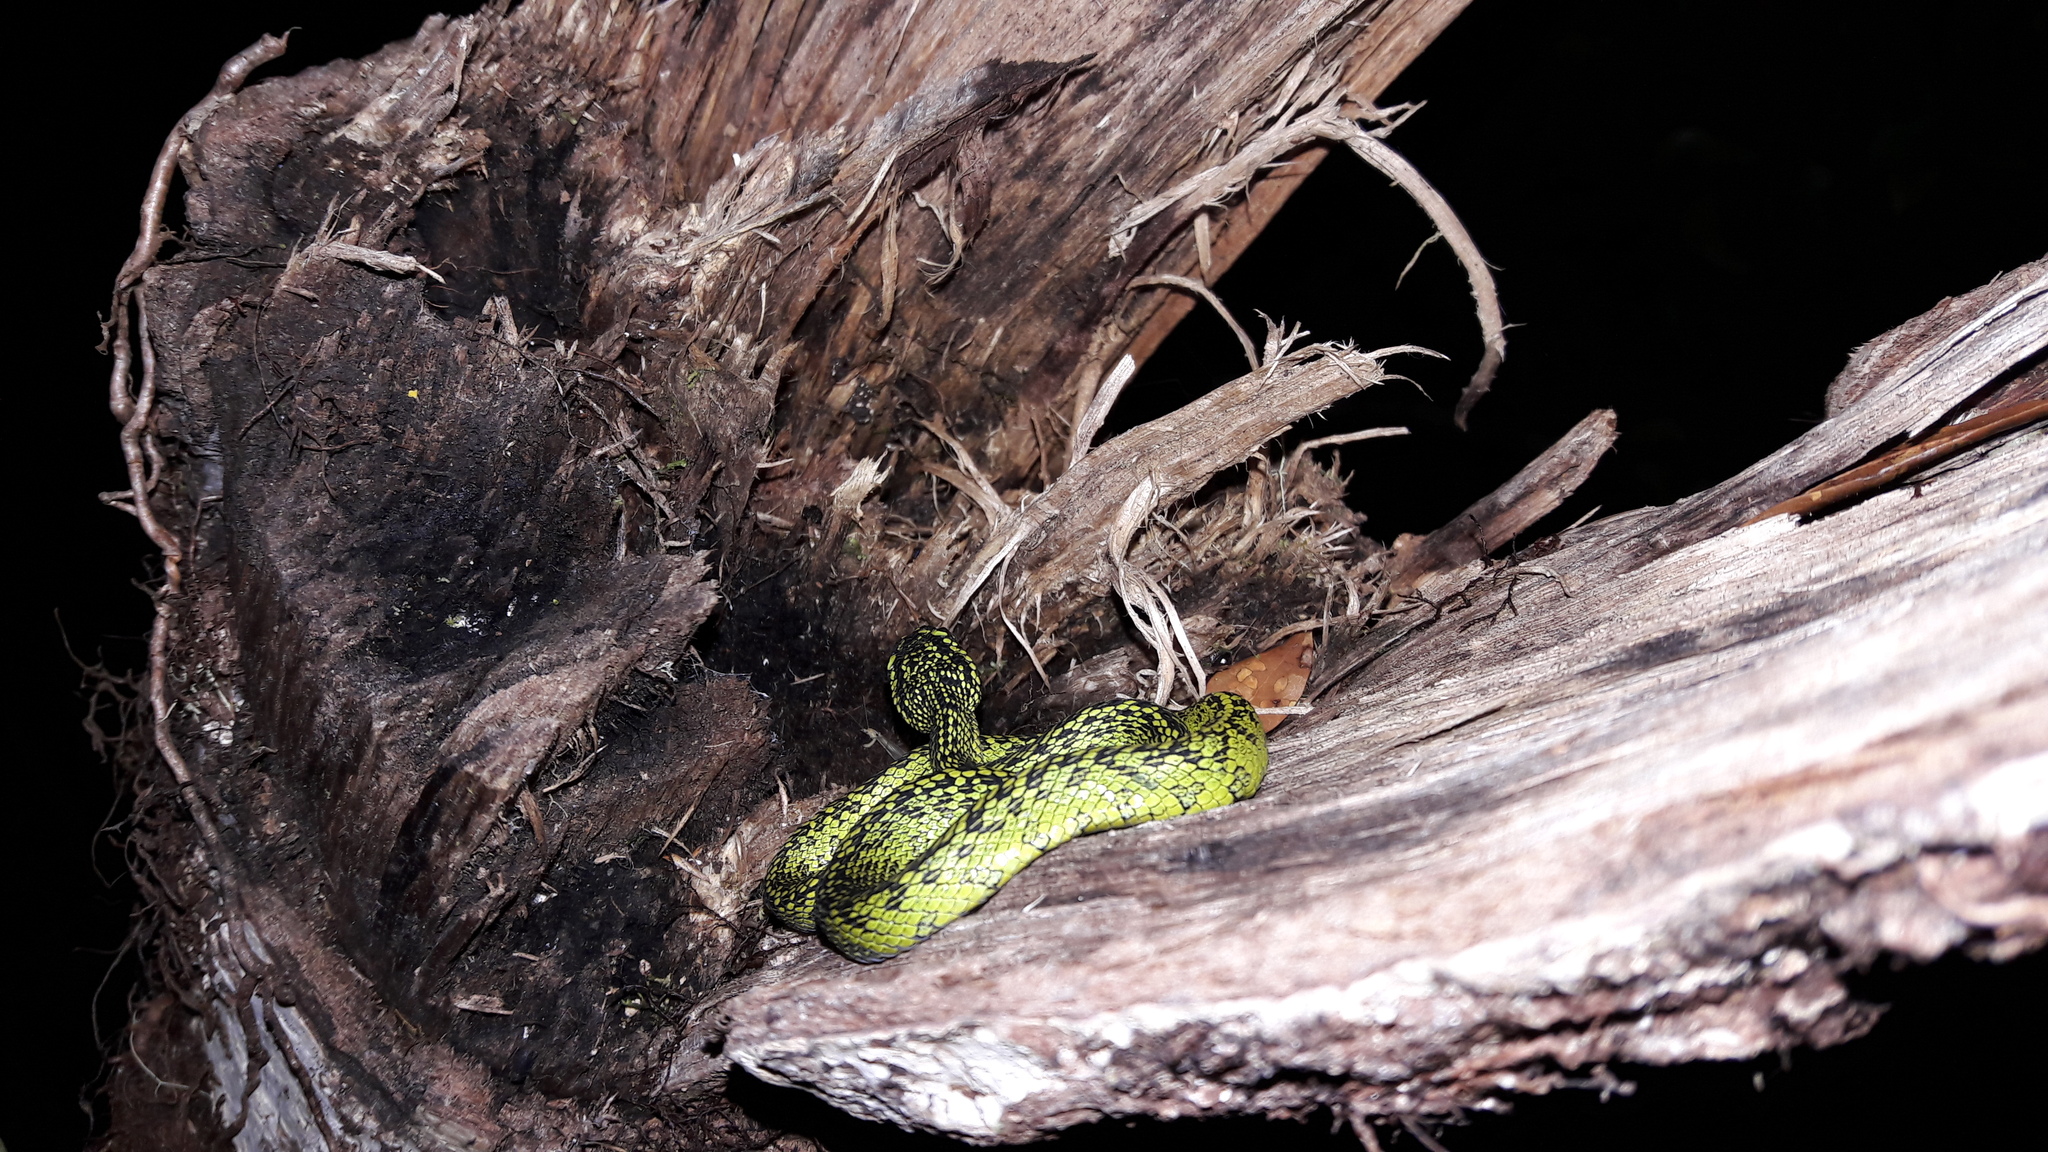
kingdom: Animalia
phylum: Chordata
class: Squamata
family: Viperidae
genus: Bothriechis
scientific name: Bothriechis nigroviridis
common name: Black-speckled palm pit viper
